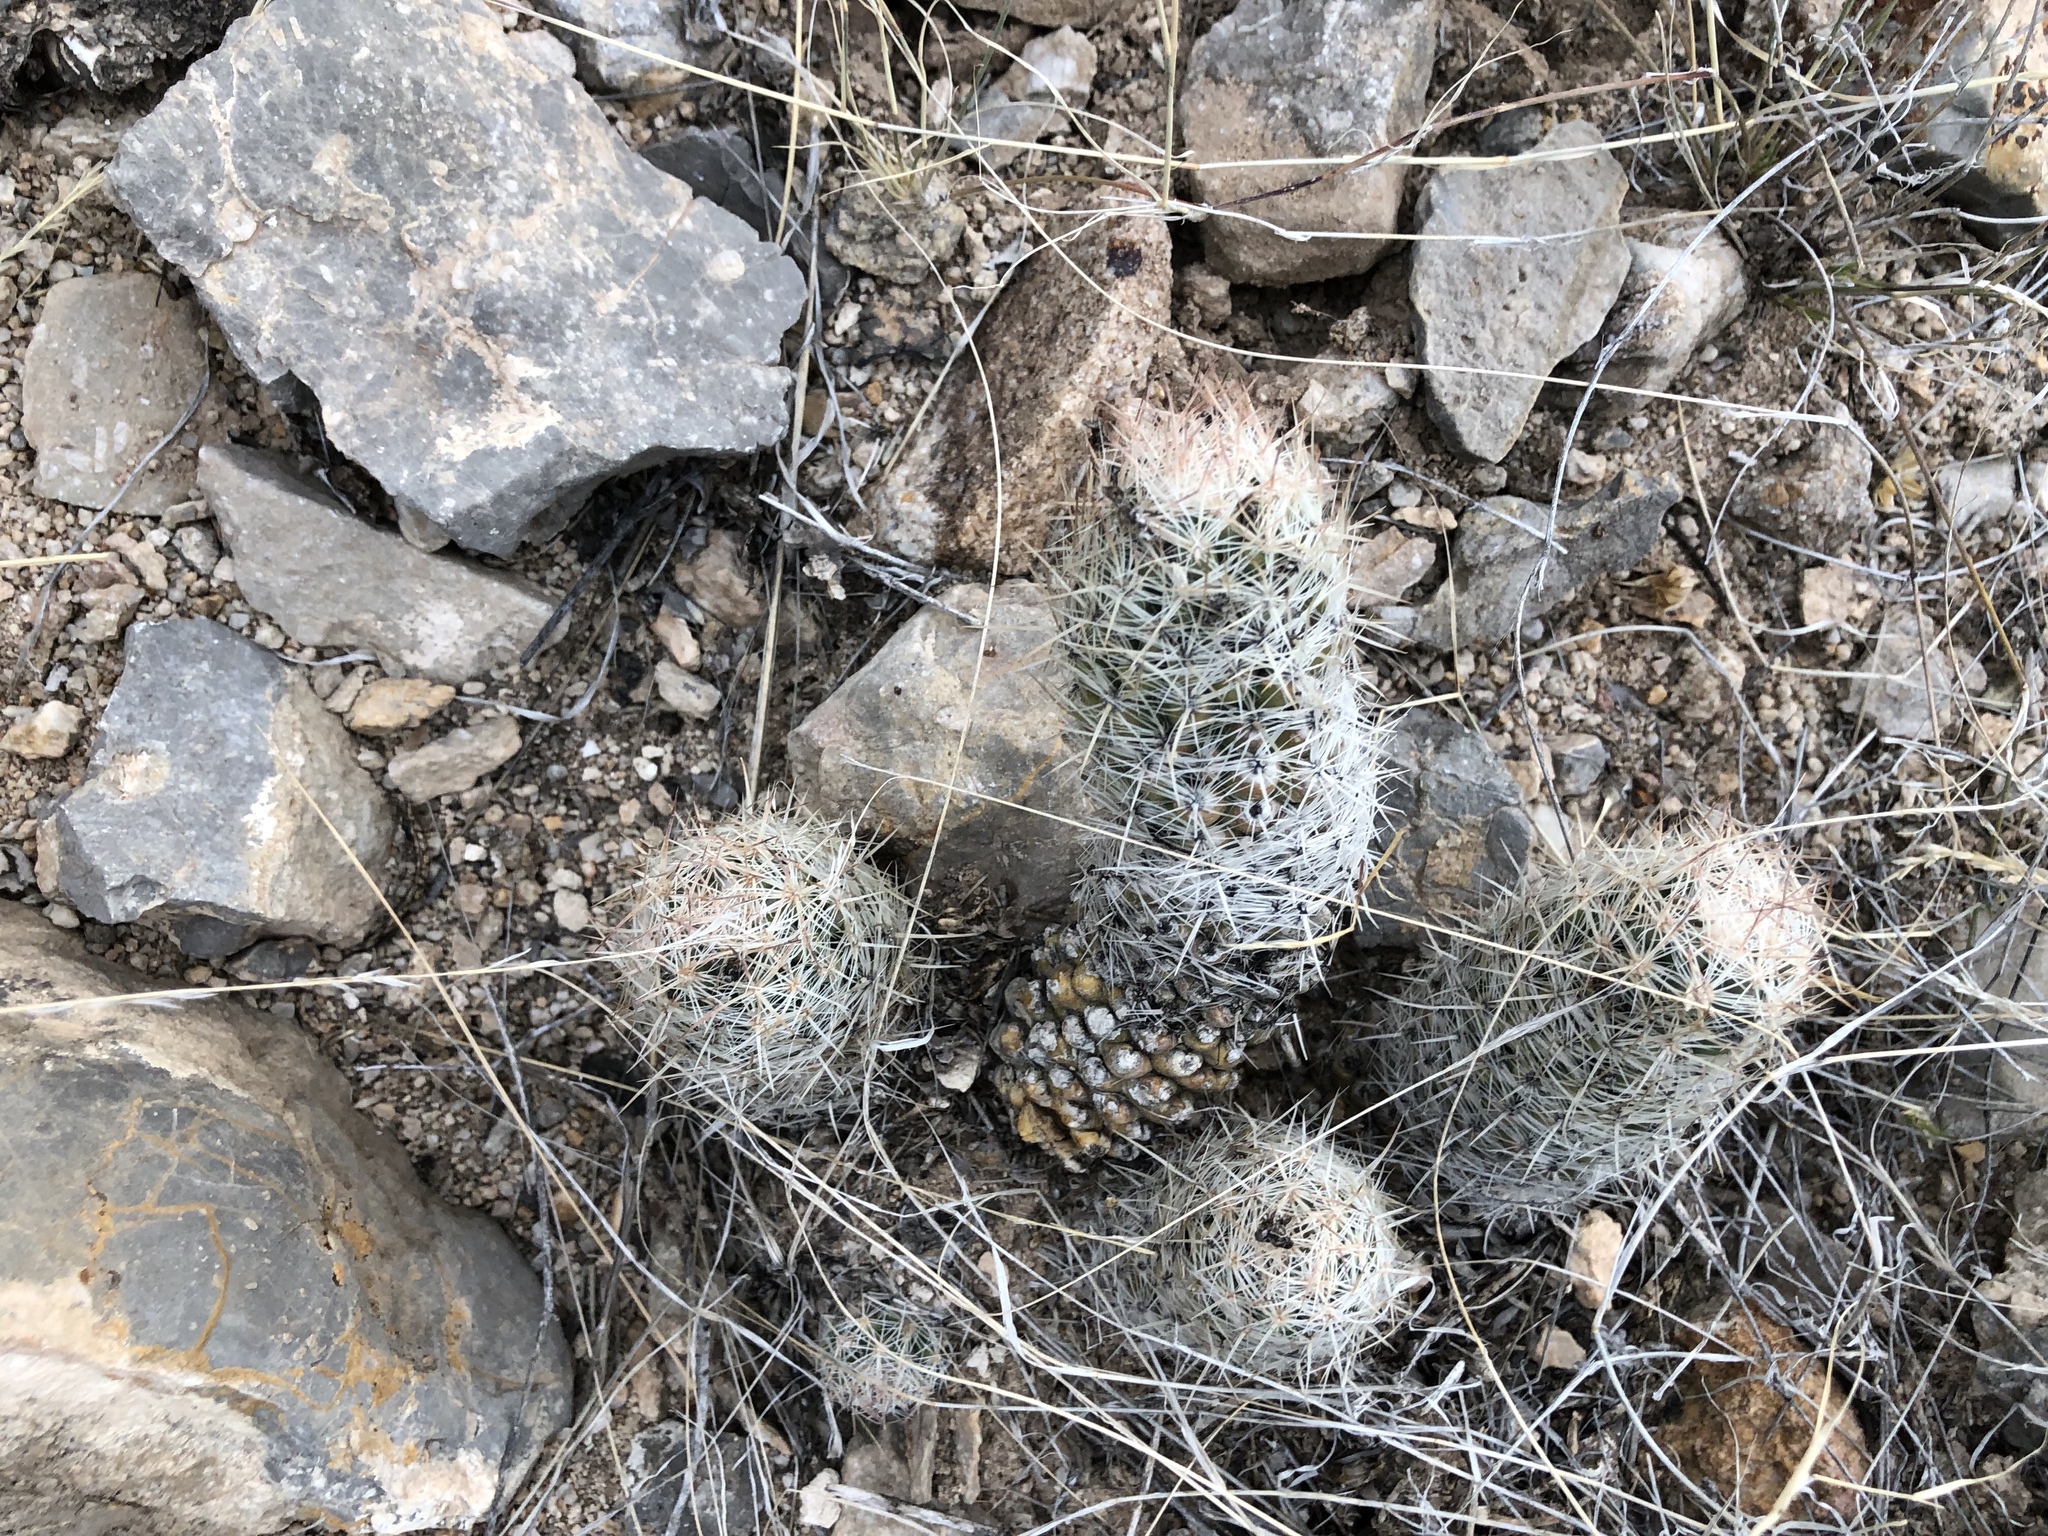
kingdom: Plantae
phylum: Tracheophyta
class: Magnoliopsida
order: Caryophyllales
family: Cactaceae
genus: Pelecyphora
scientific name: Pelecyphora tuberculosa
